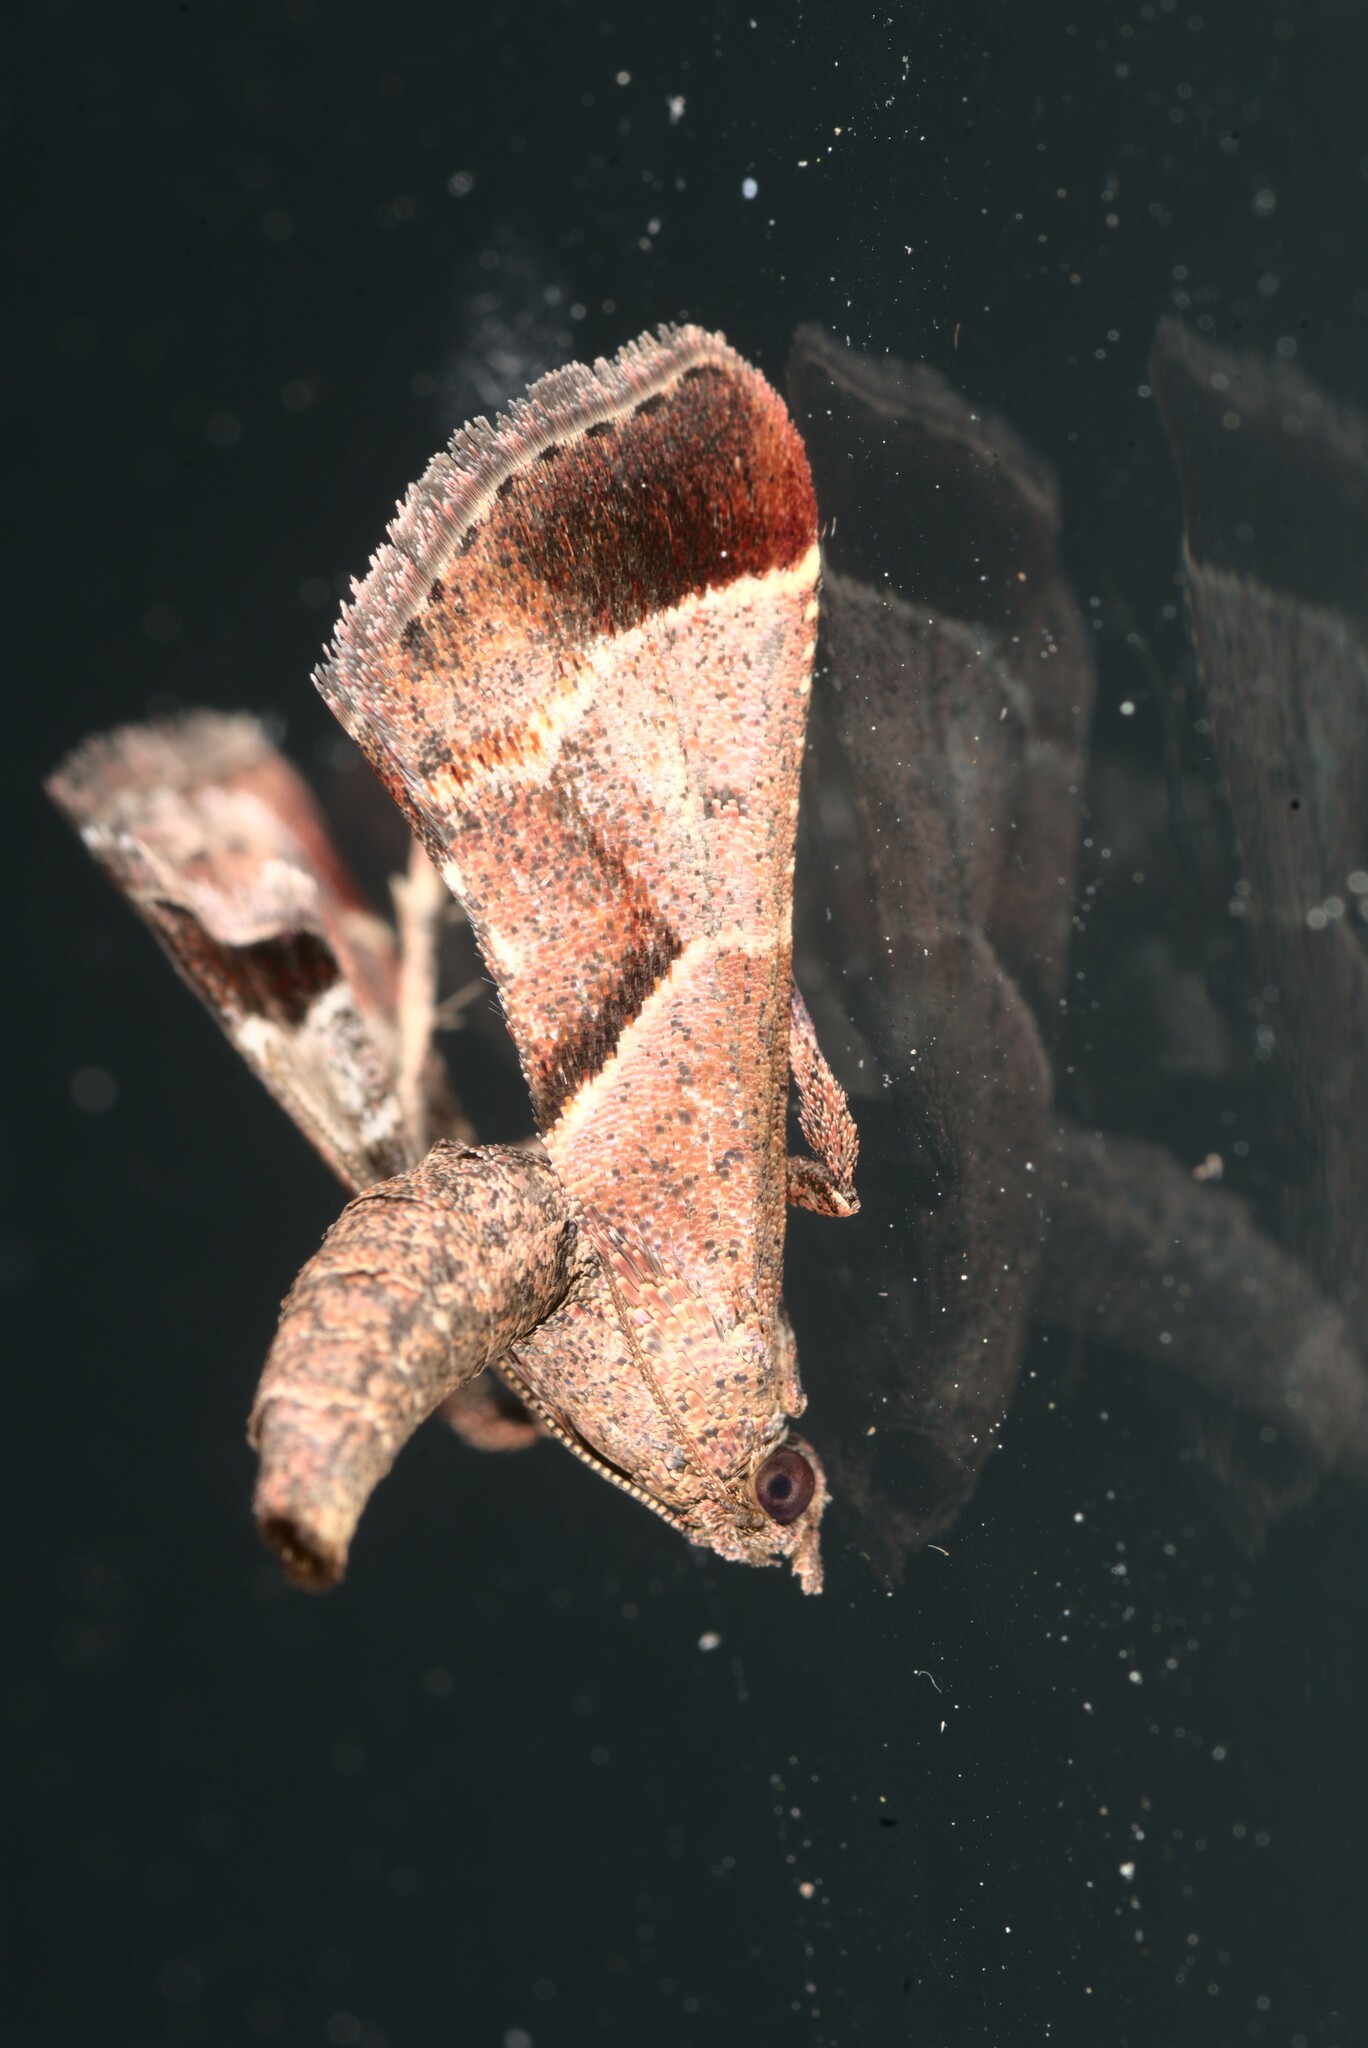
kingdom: Animalia
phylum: Arthropoda
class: Insecta
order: Lepidoptera
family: Pyralidae
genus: Gauna
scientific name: Gauna aegusalis
